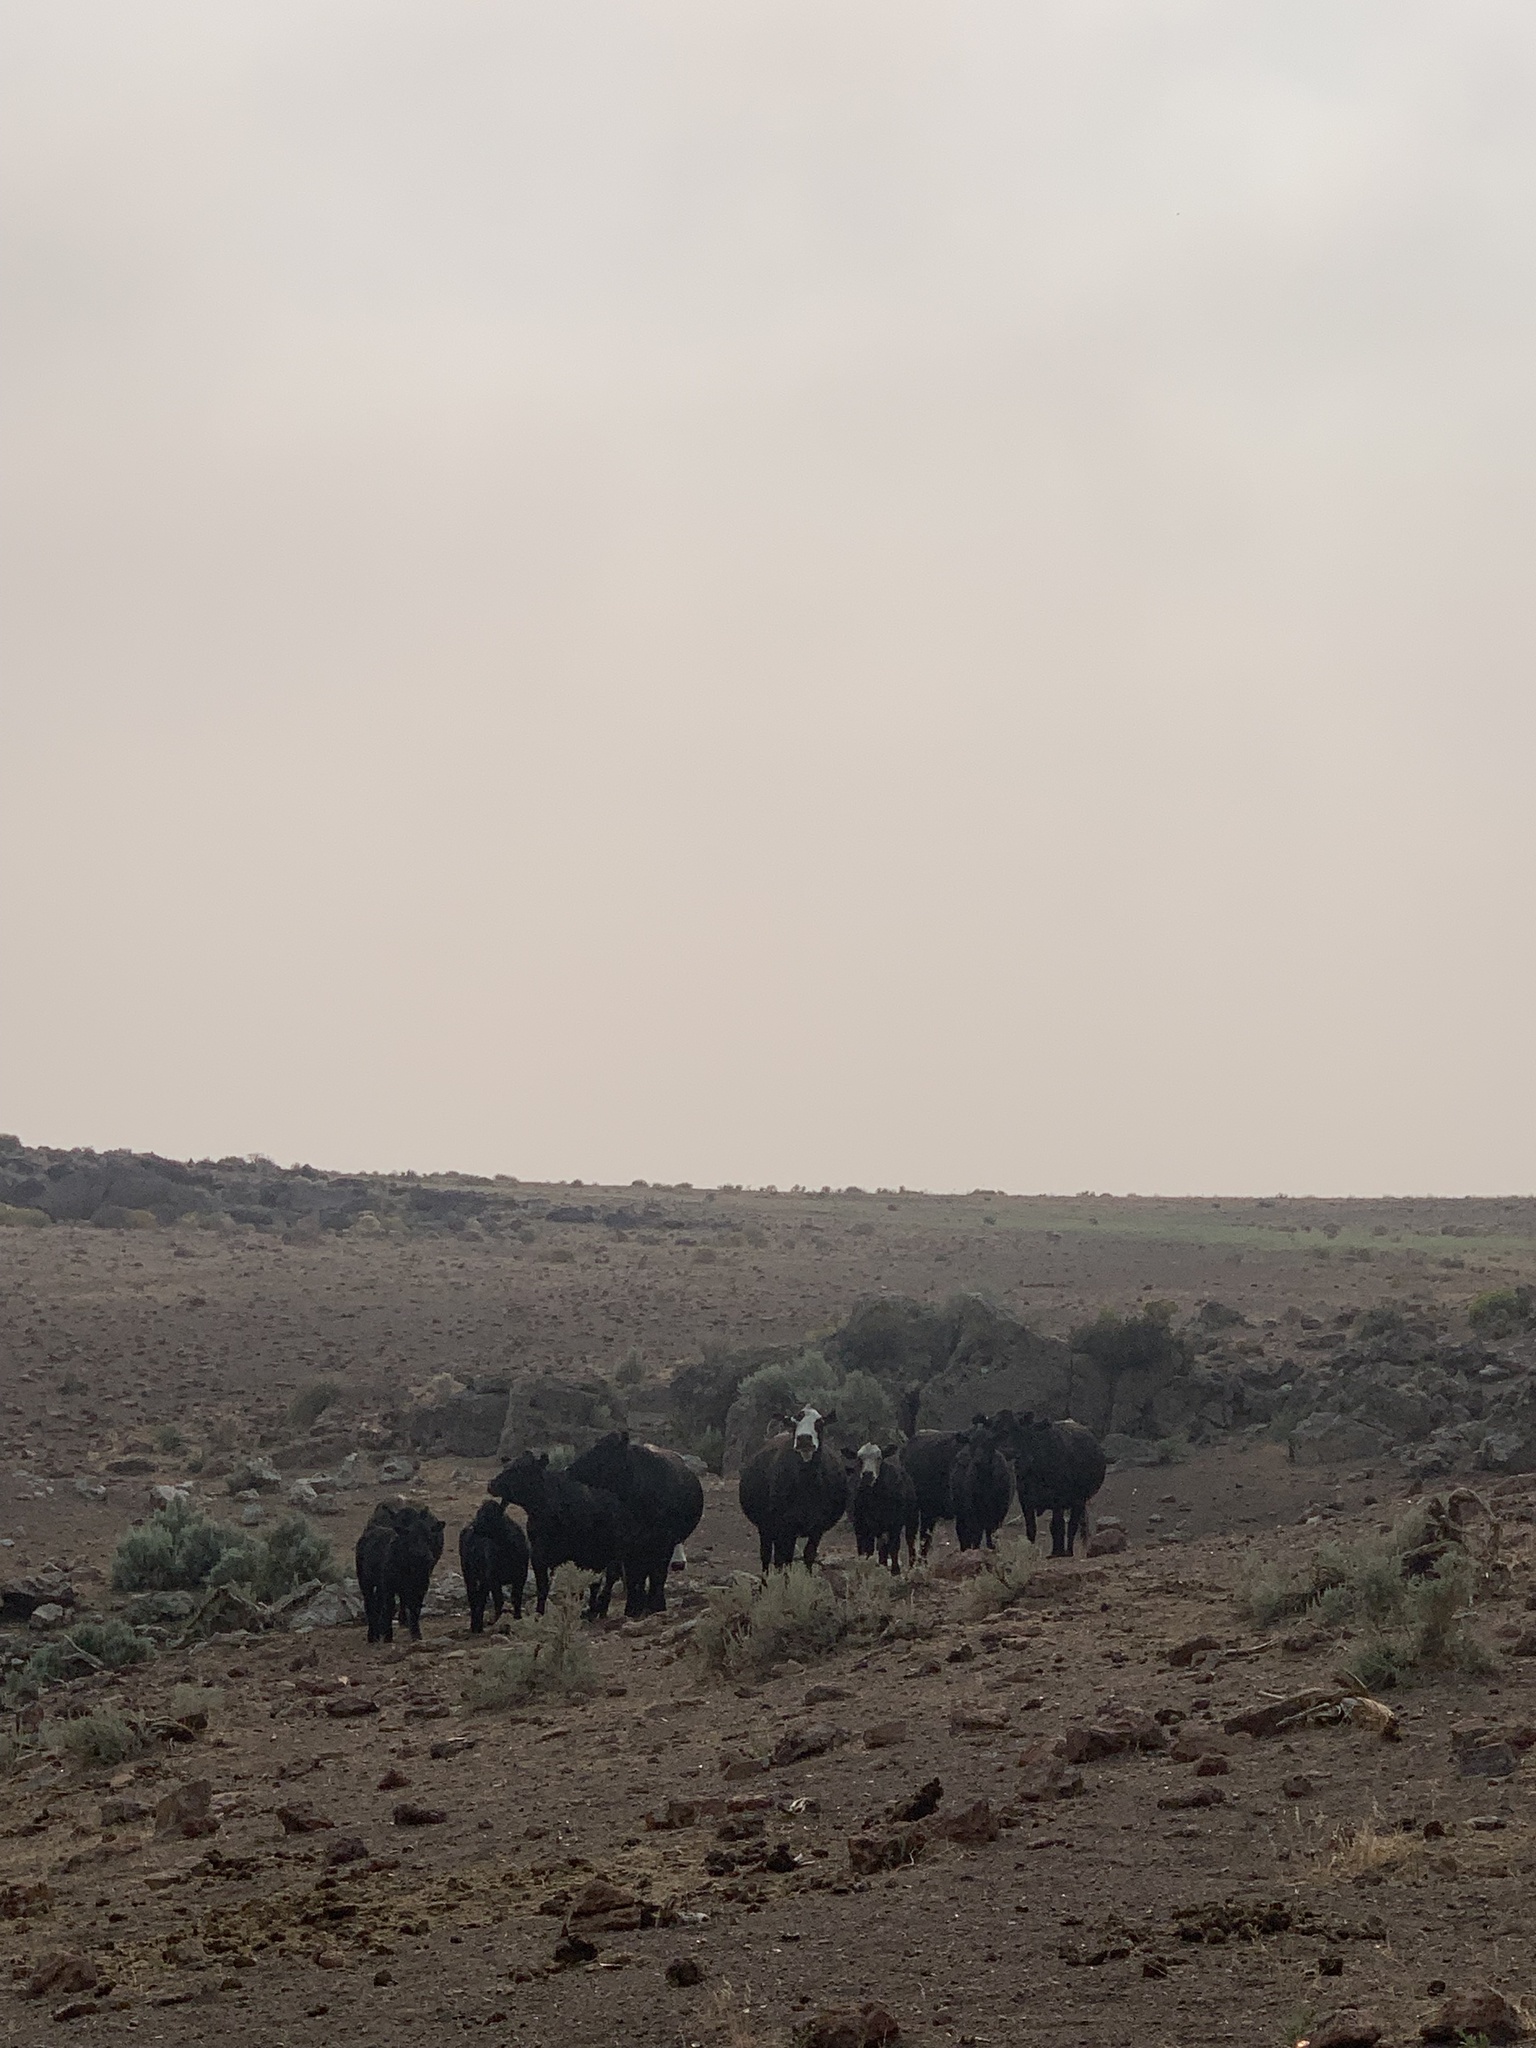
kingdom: Animalia
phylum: Chordata
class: Mammalia
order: Artiodactyla
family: Bovidae
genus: Bos
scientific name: Bos taurus
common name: Domesticated cattle
